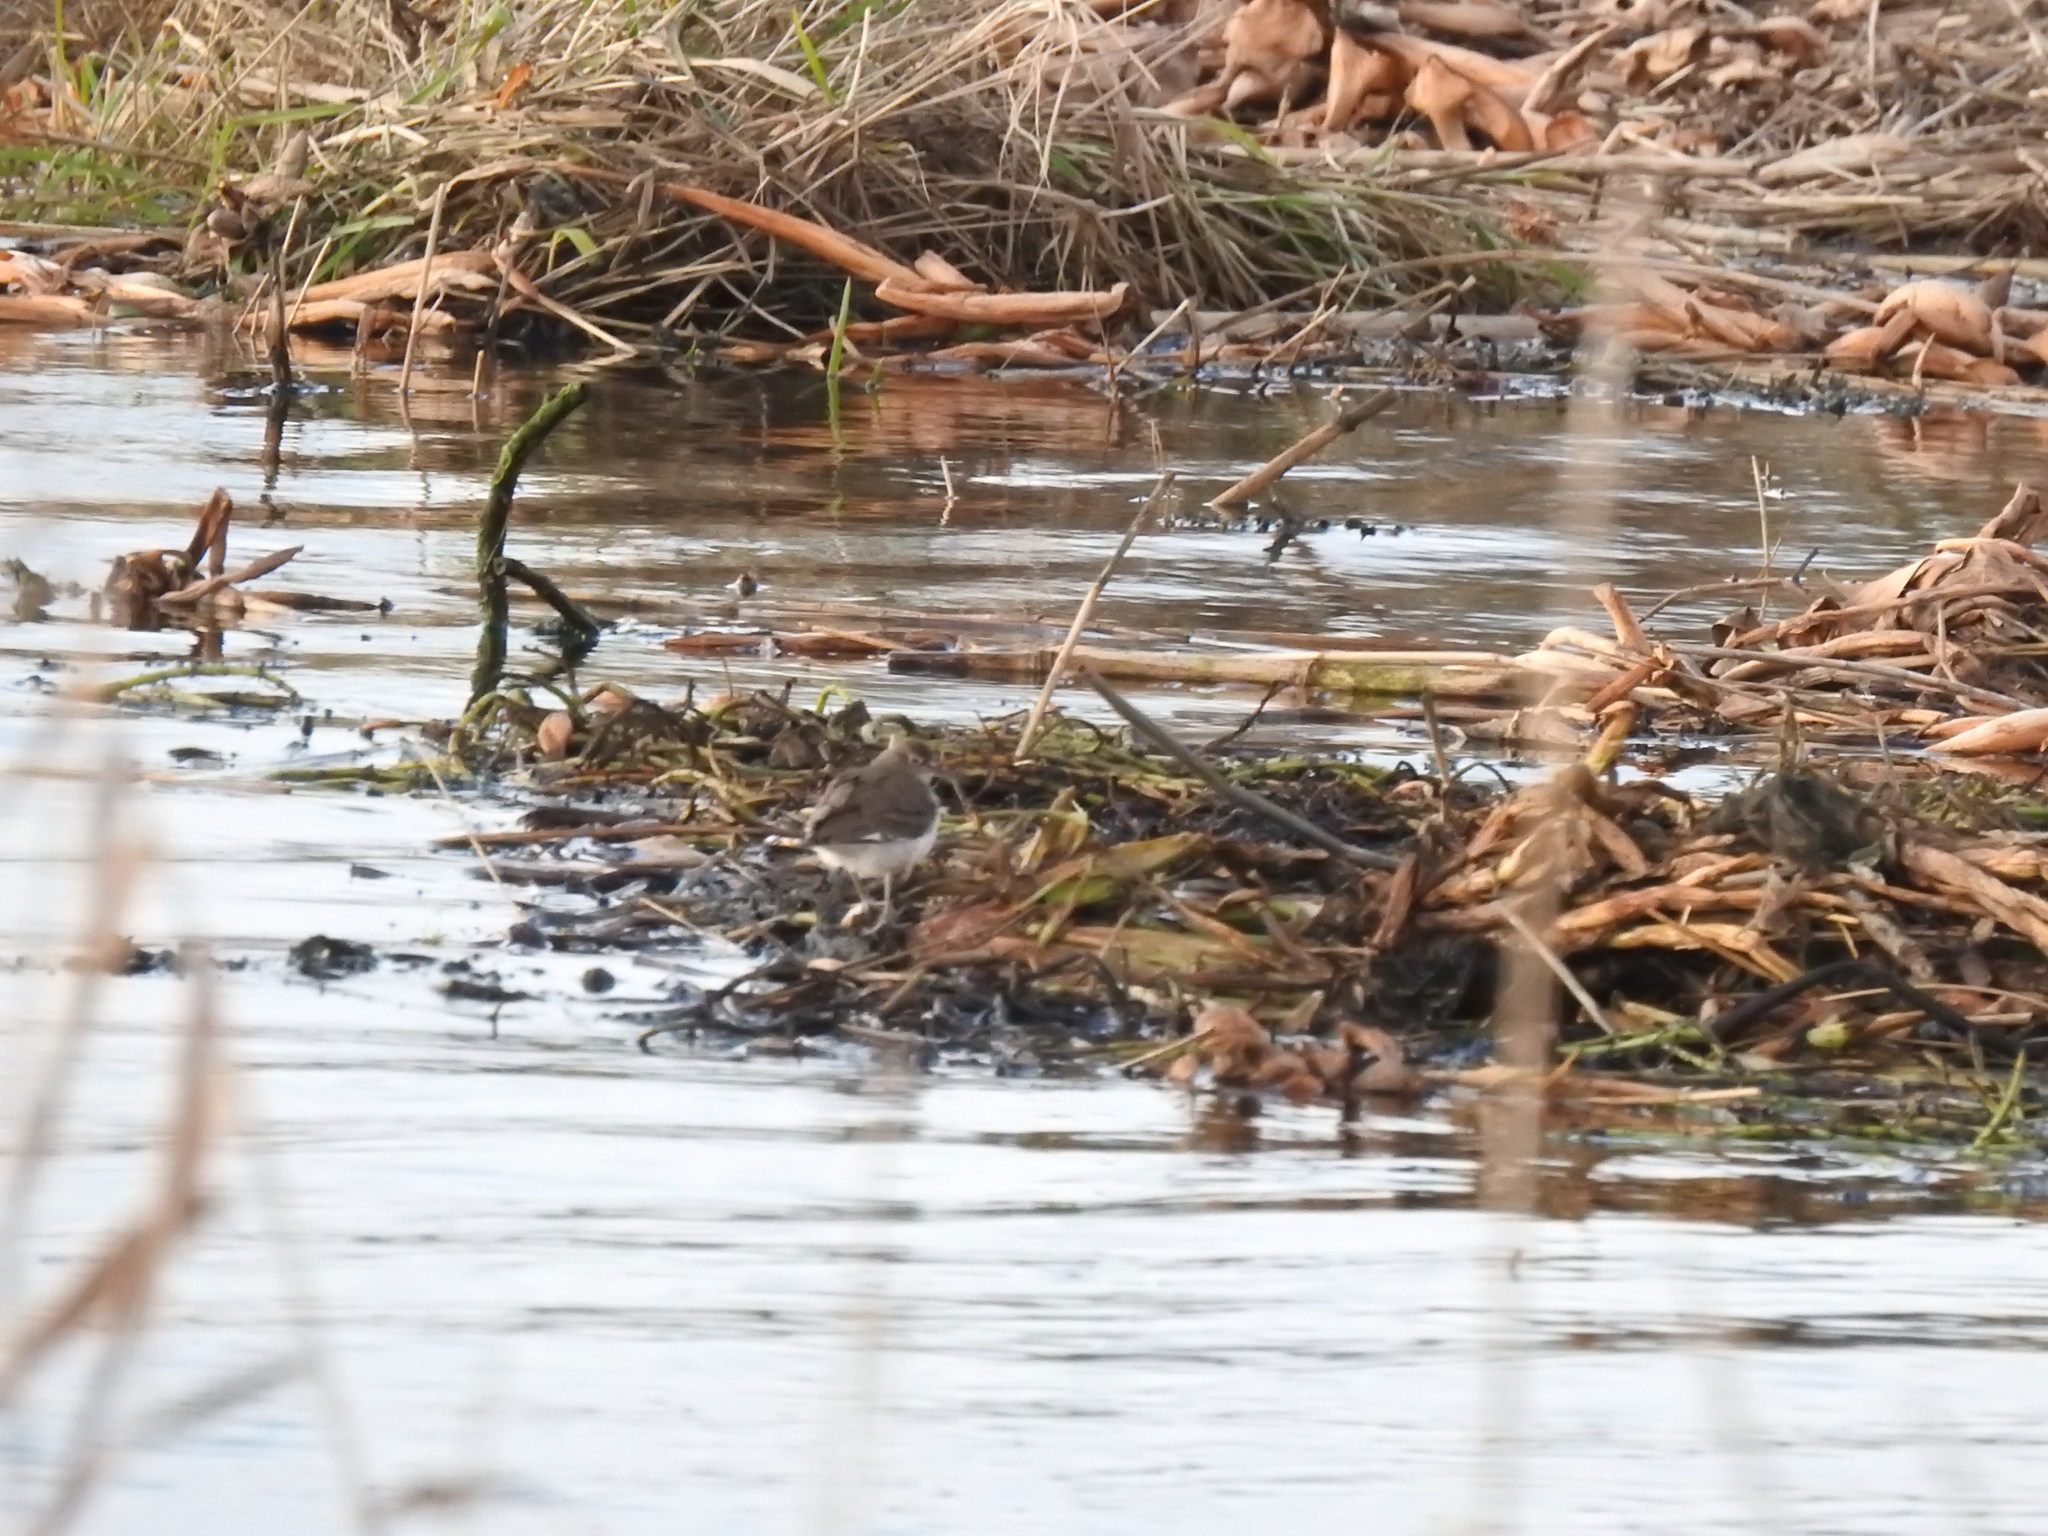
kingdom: Animalia
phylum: Chordata
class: Aves
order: Charadriiformes
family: Scolopacidae
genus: Actitis
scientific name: Actitis hypoleucos
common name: Common sandpiper
